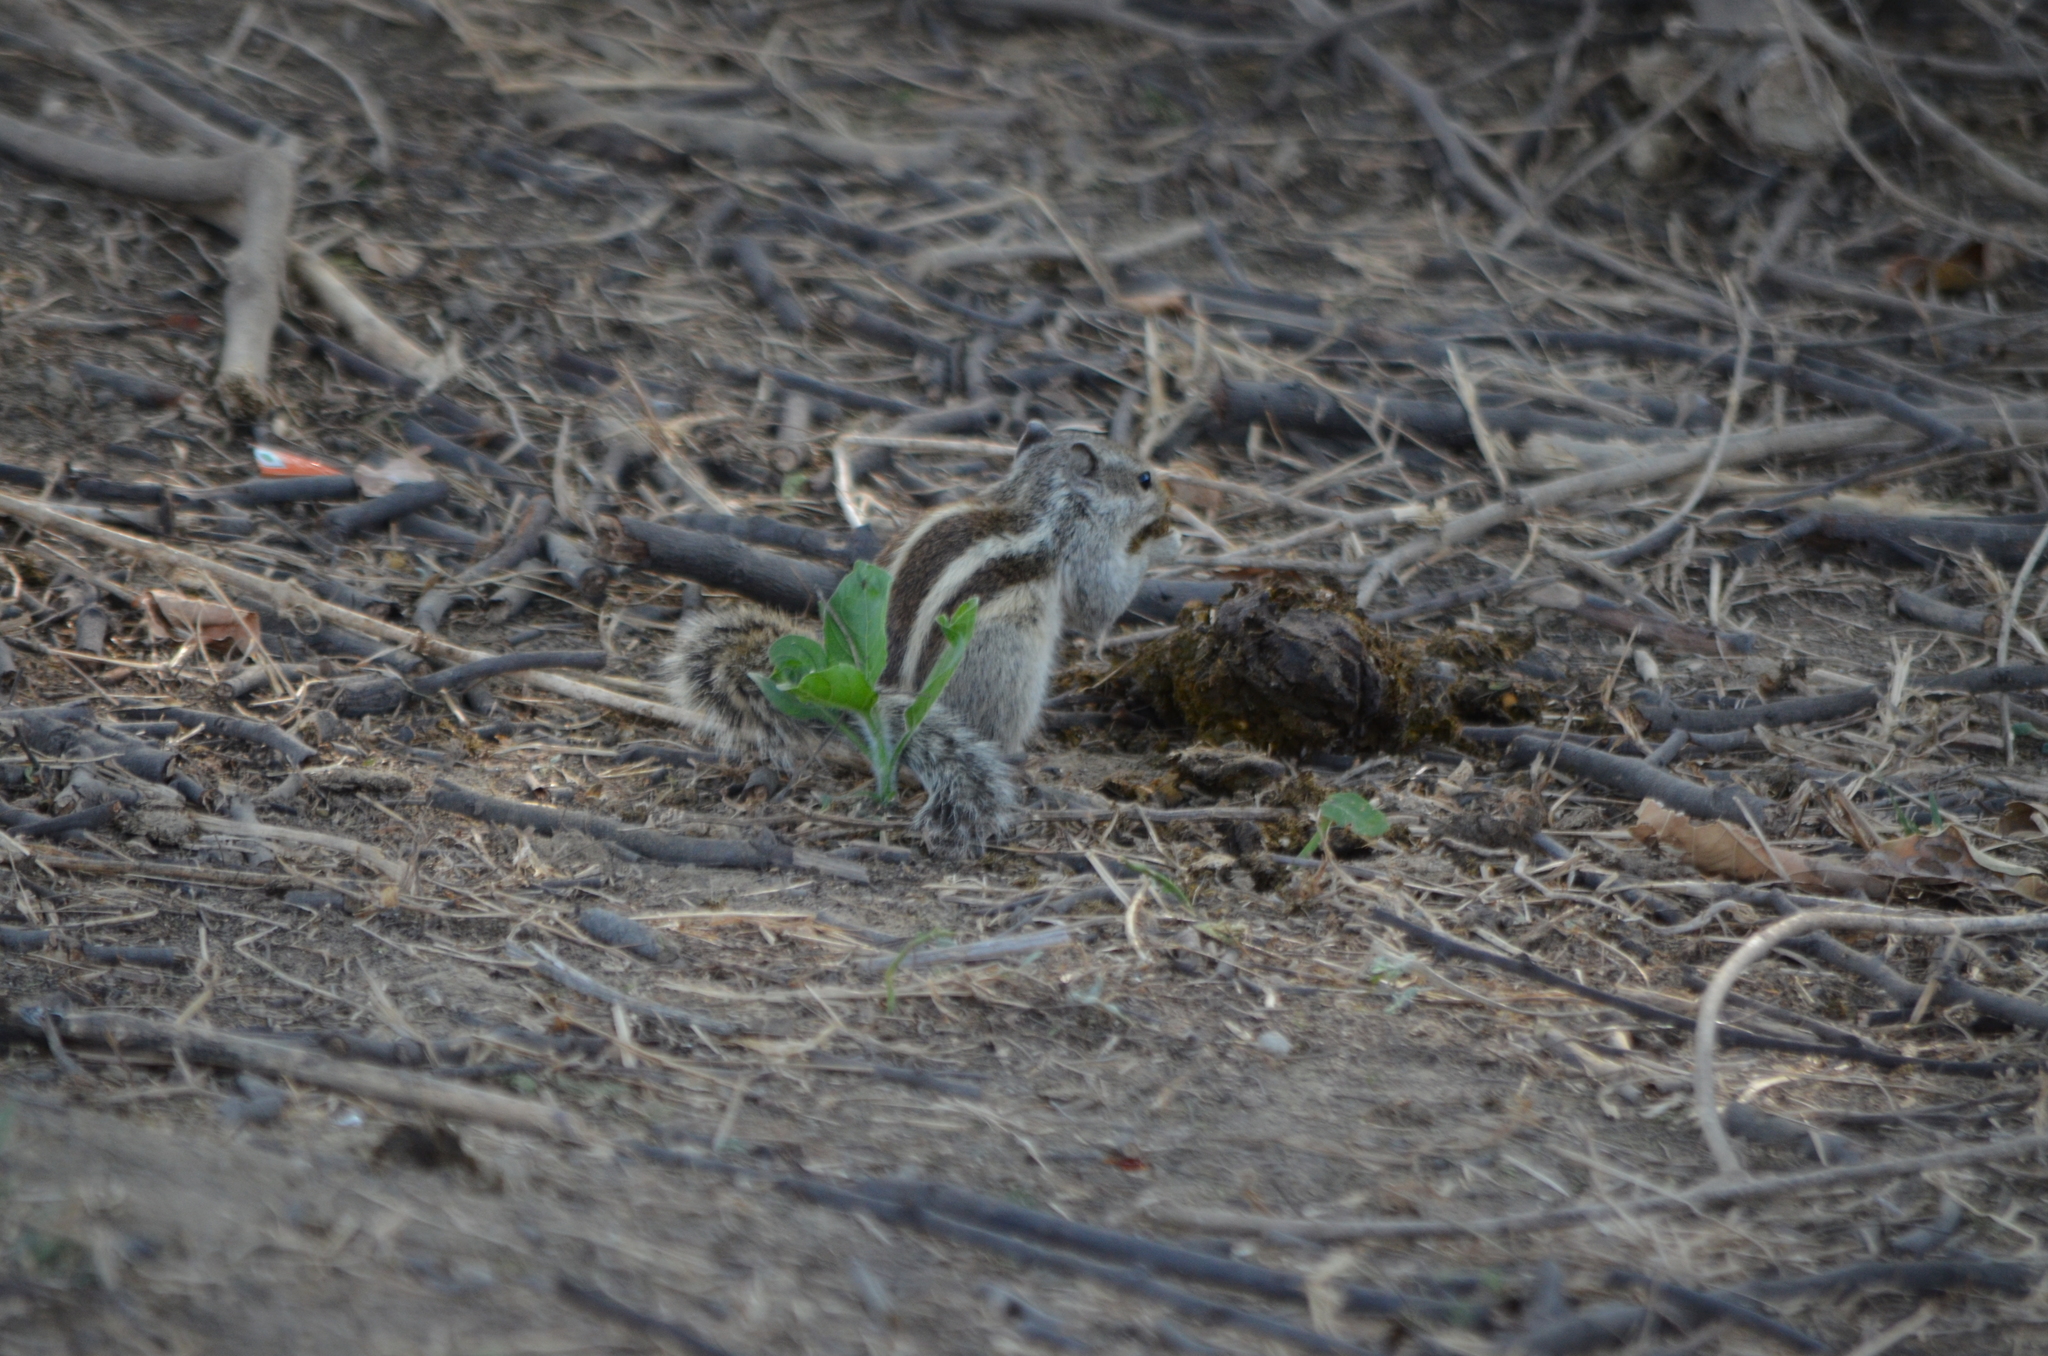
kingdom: Animalia
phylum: Chordata
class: Mammalia
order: Rodentia
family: Sciuridae
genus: Funambulus
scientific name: Funambulus pennantii
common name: Northern palm squirrel
